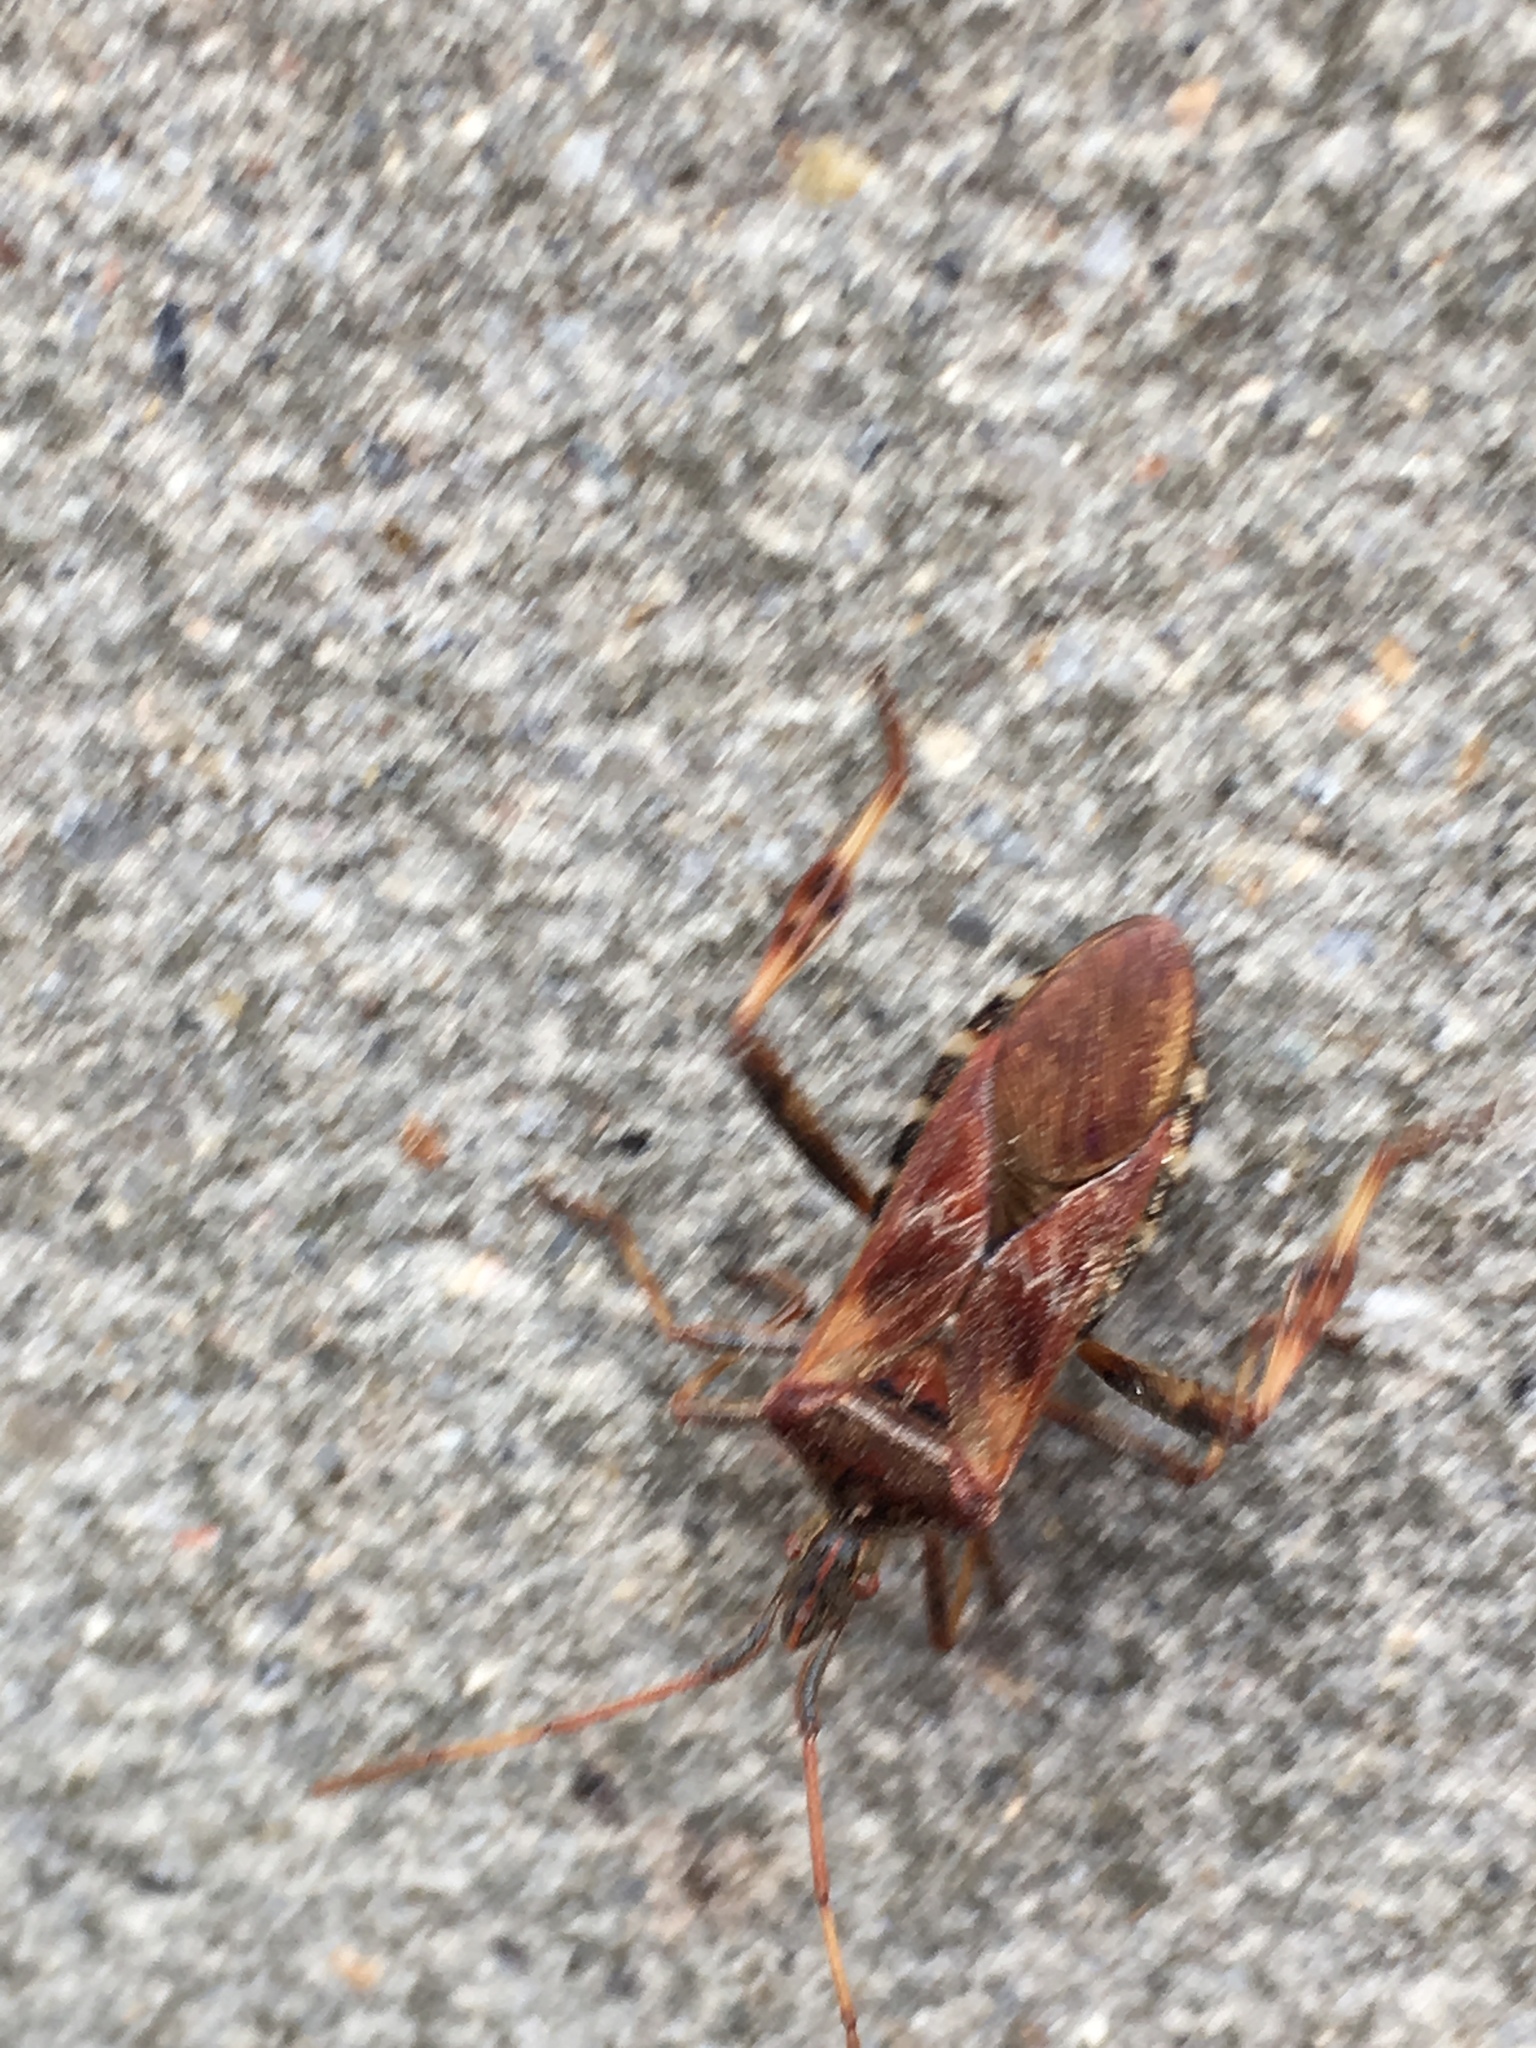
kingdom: Animalia
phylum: Arthropoda
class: Insecta
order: Hemiptera
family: Coreidae
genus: Leptoglossus
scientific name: Leptoglossus occidentalis
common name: Western conifer-seed bug
